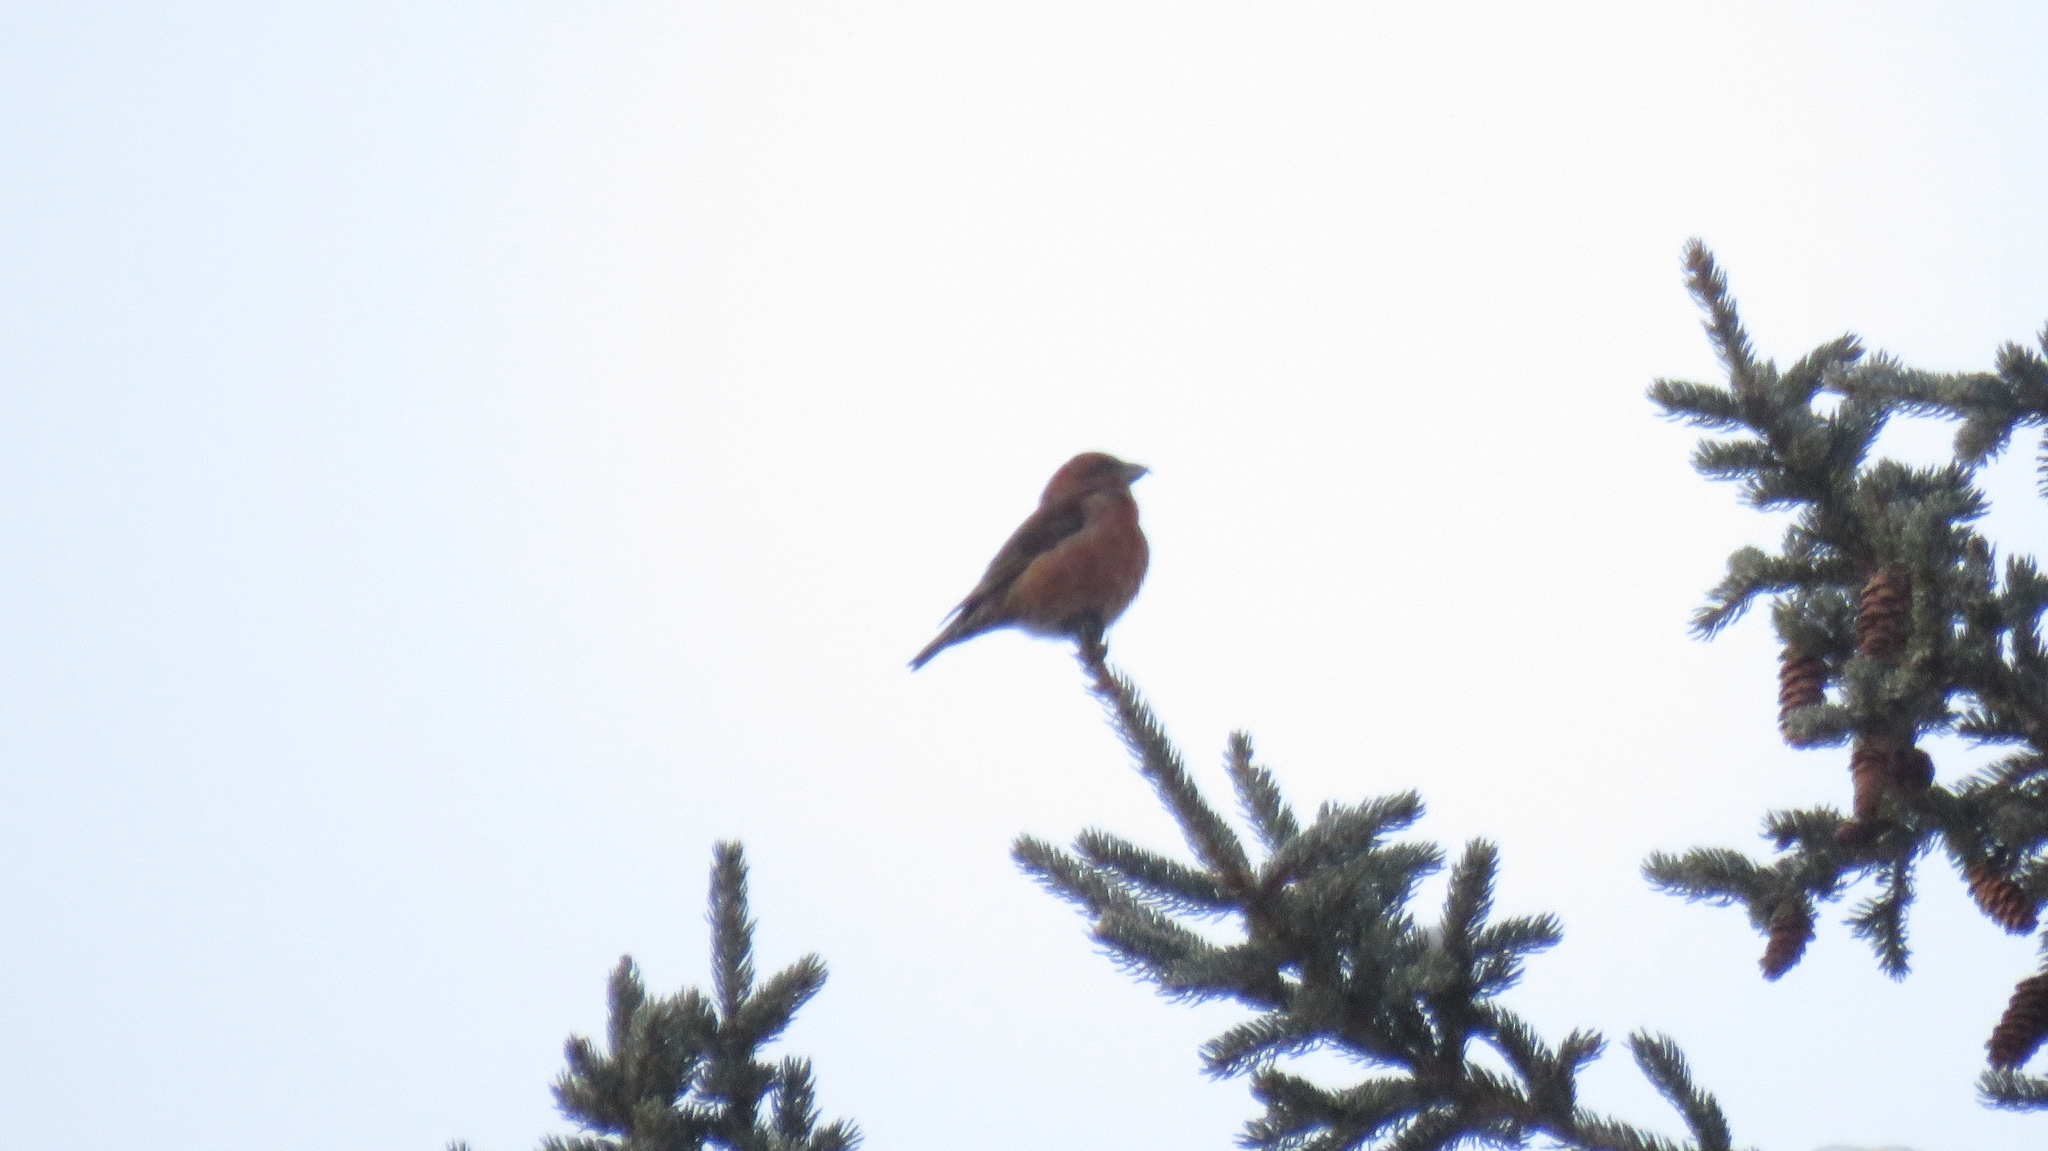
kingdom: Animalia
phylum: Chordata
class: Aves
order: Passeriformes
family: Fringillidae
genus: Loxia
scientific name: Loxia curvirostra
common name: Red crossbill
